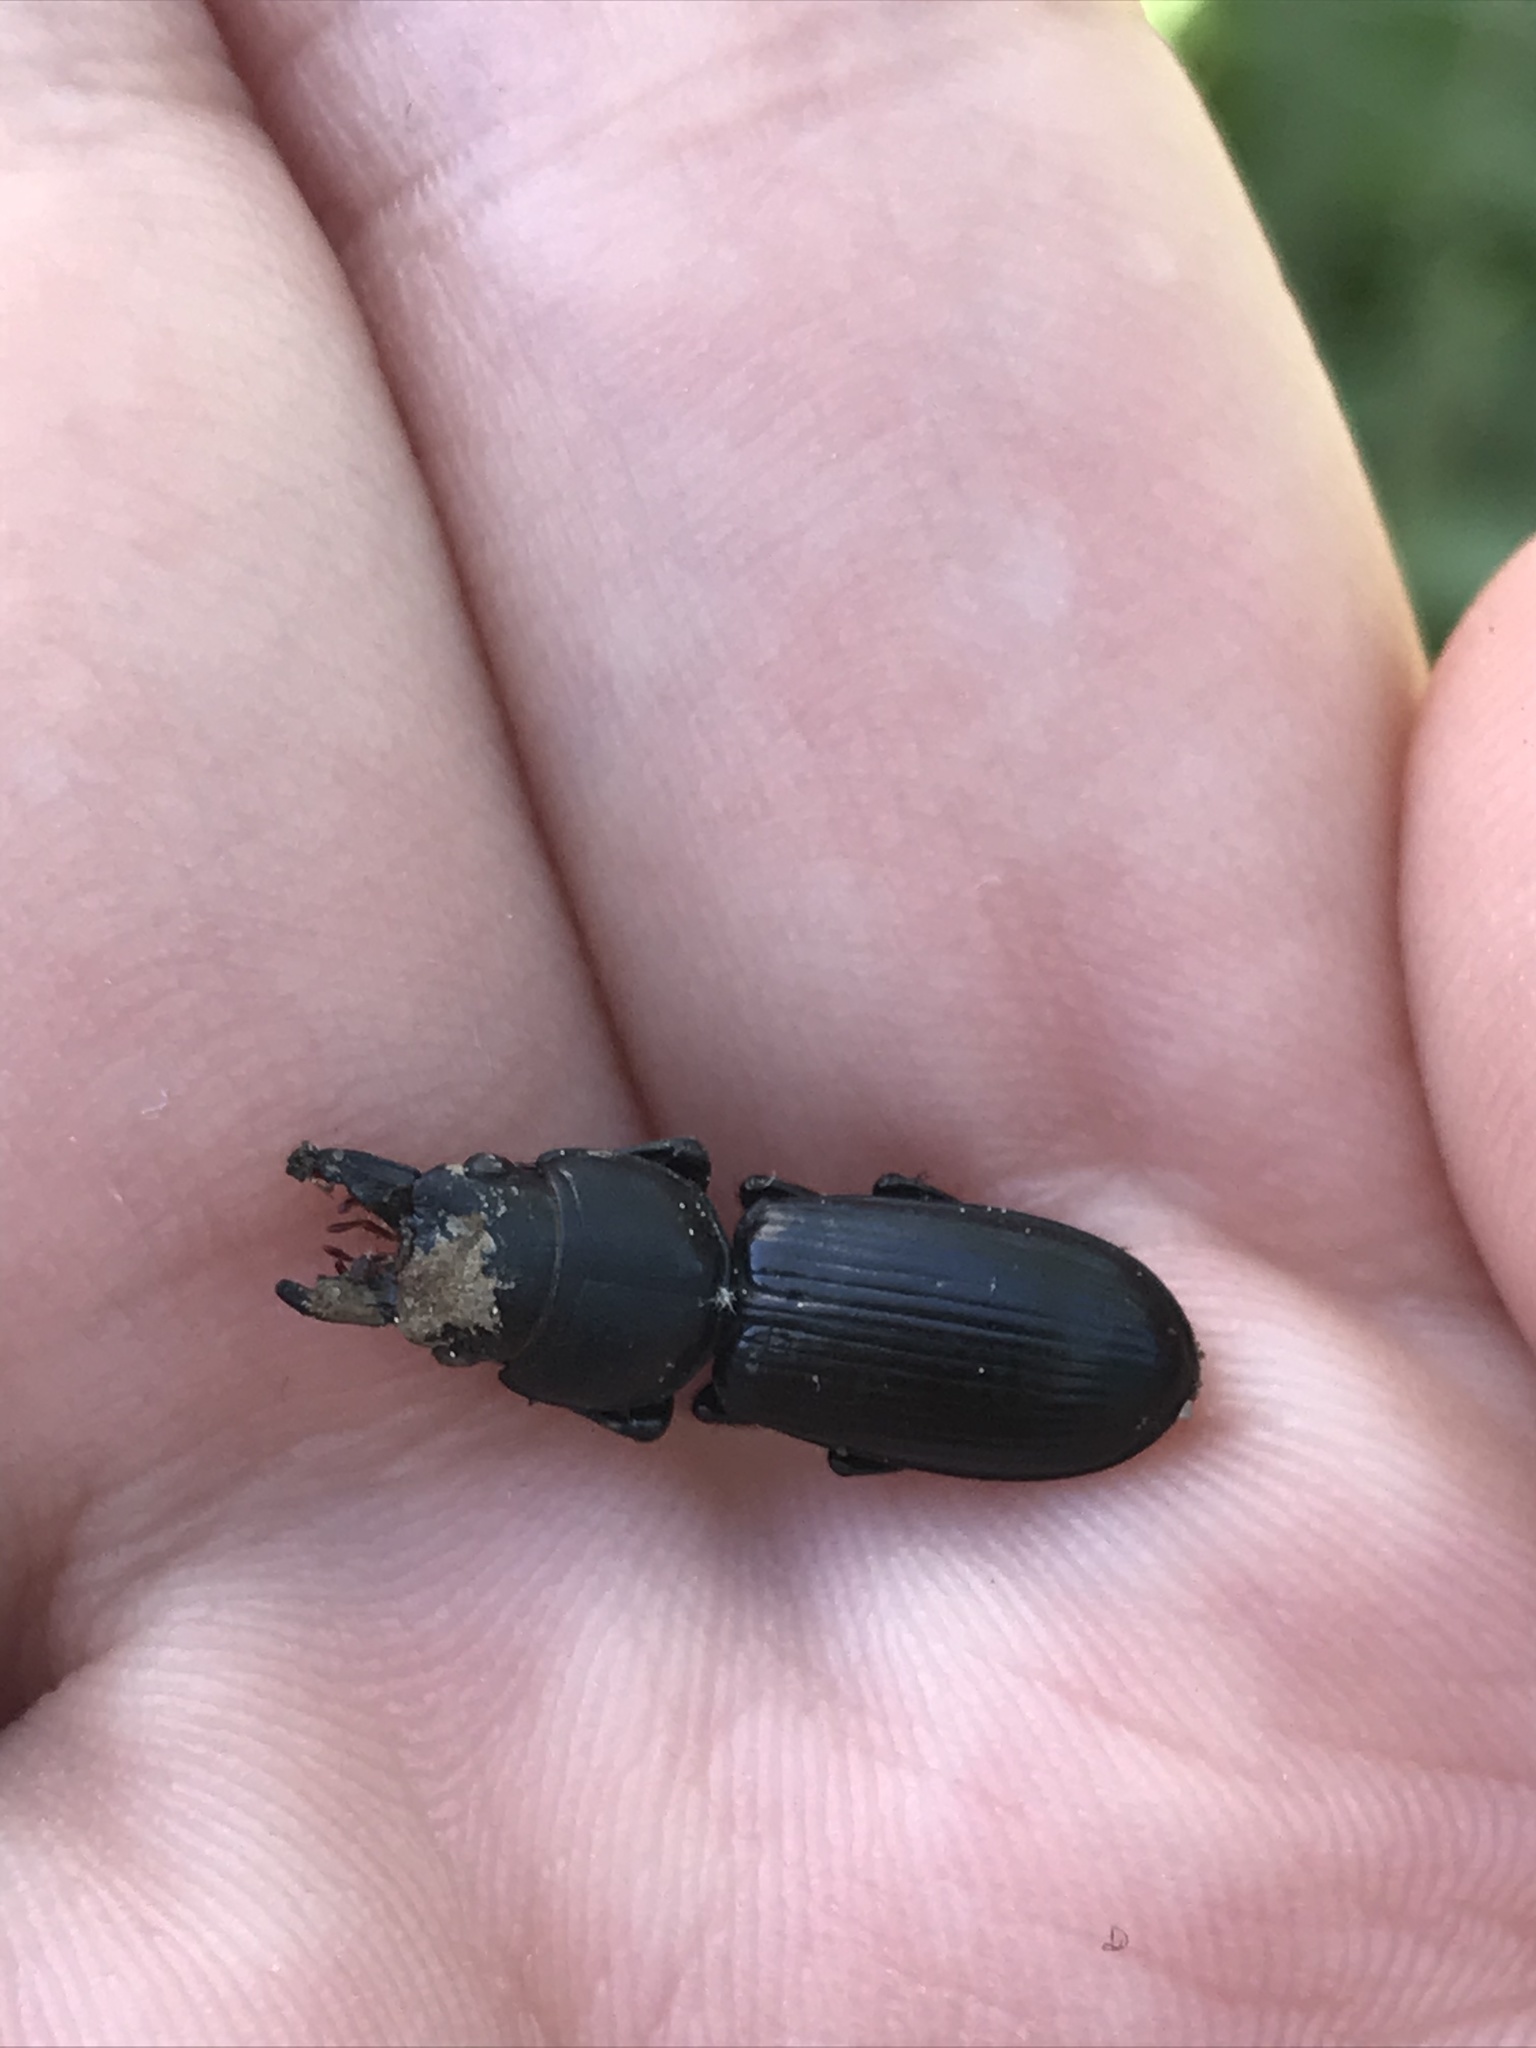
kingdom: Animalia
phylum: Arthropoda
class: Insecta
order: Coleoptera
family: Carabidae
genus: Scarites
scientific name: Scarites subterraneus
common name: Big-headed ground beetle
